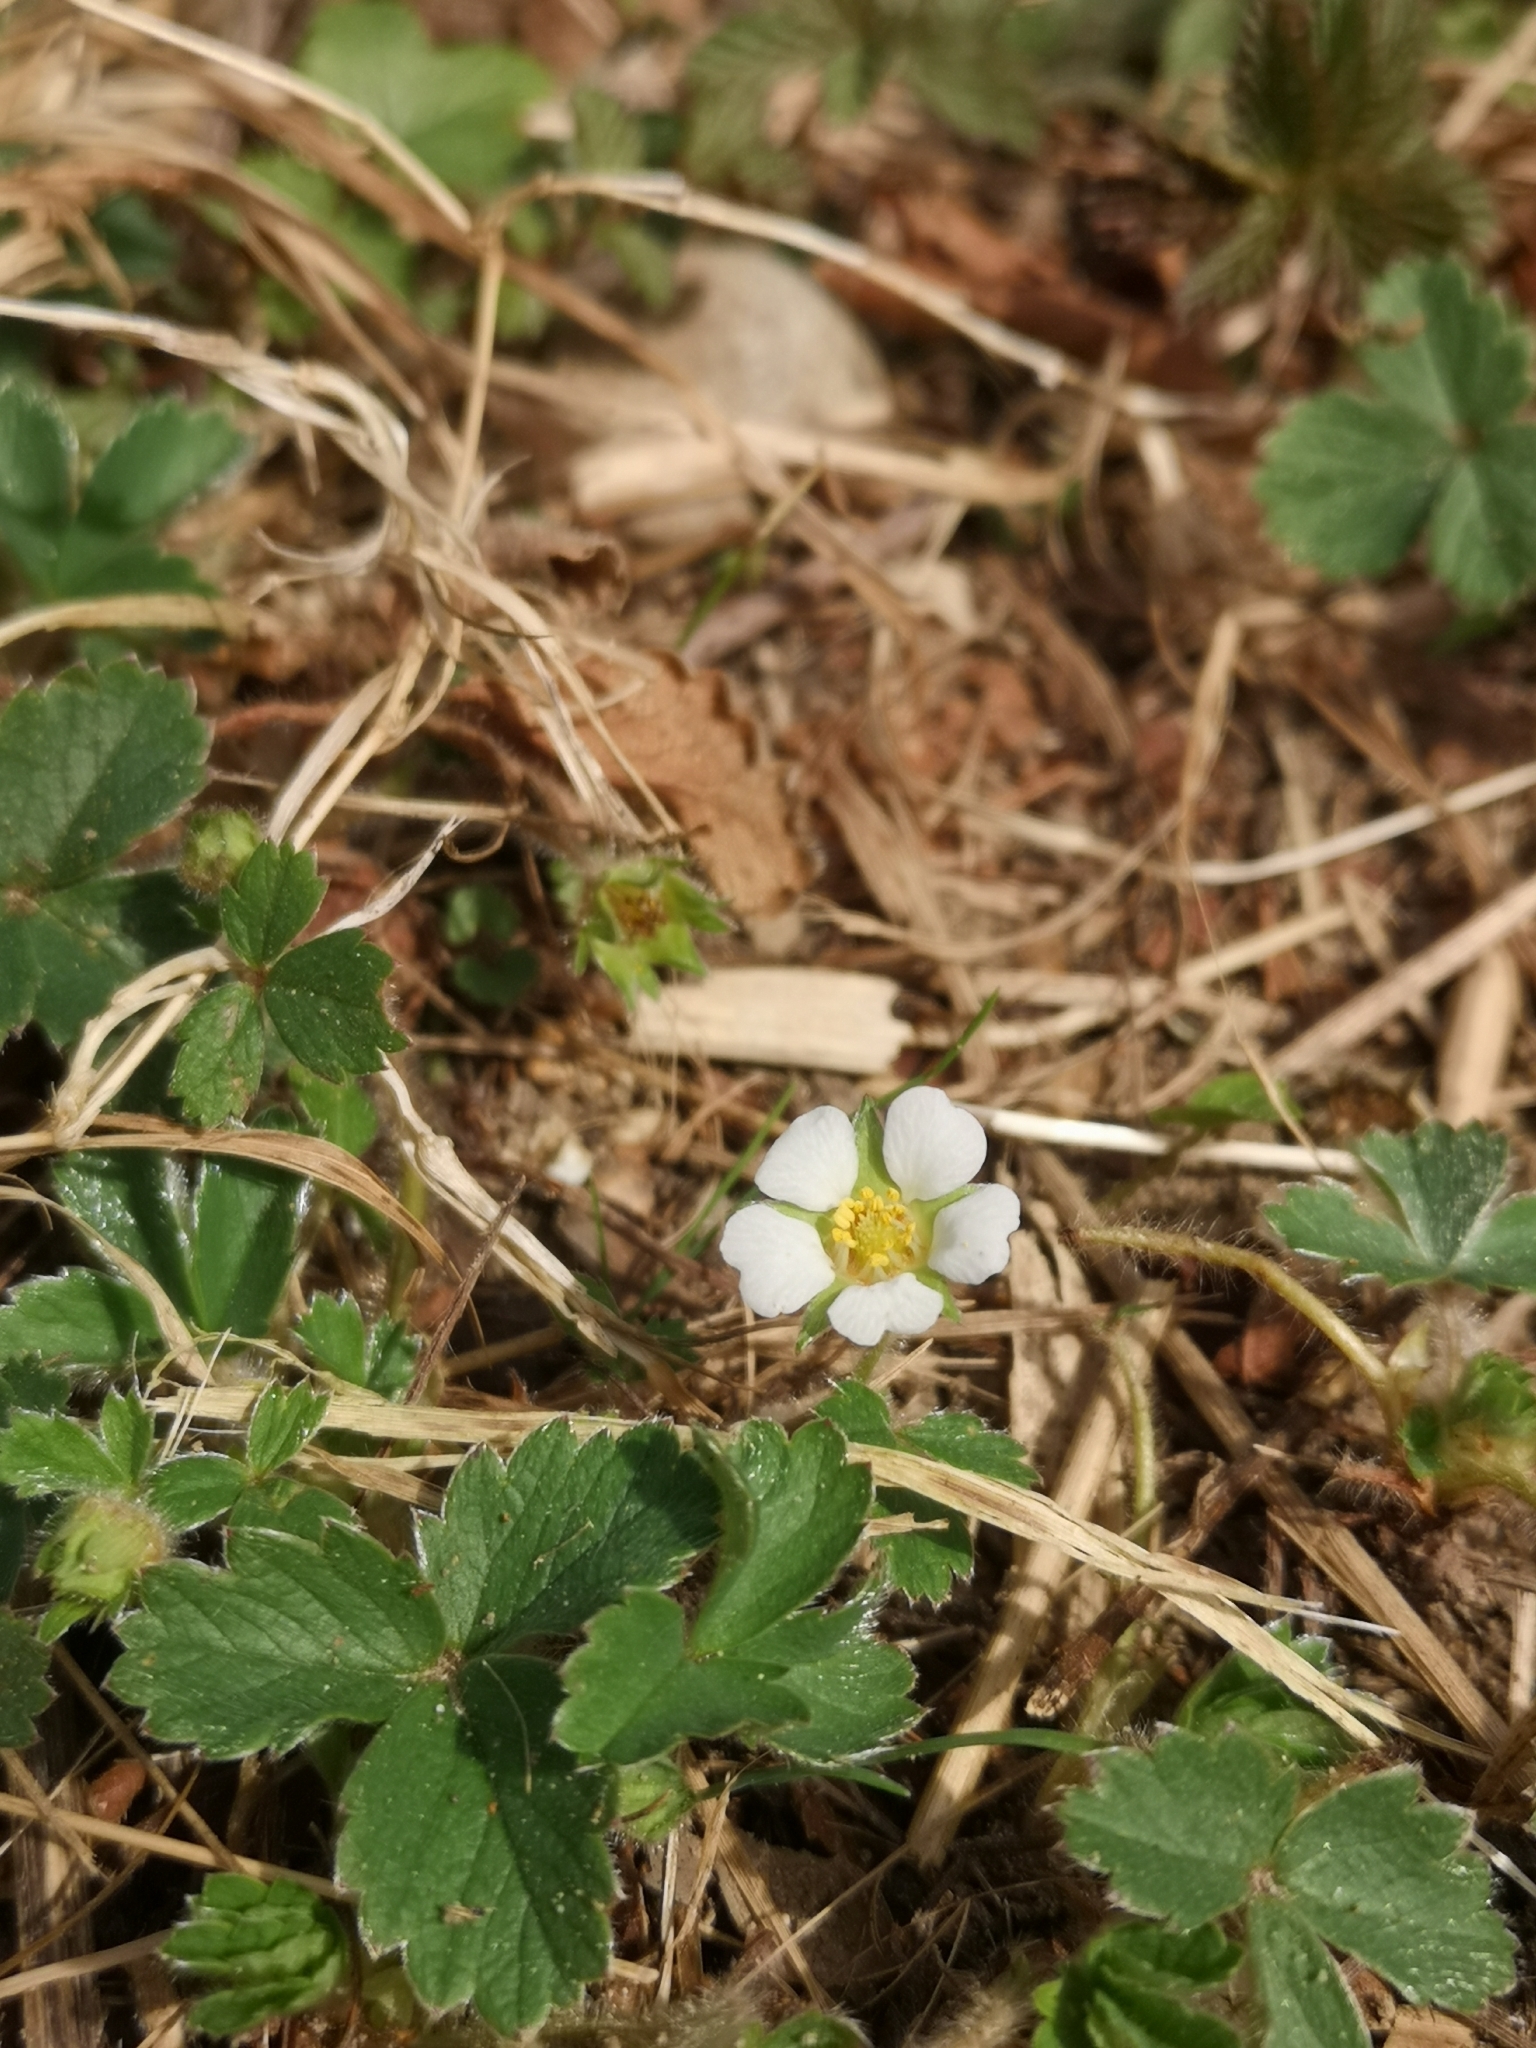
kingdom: Plantae
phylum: Tracheophyta
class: Magnoliopsida
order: Rosales
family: Rosaceae
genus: Potentilla
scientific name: Potentilla sterilis
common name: Barren strawberry
